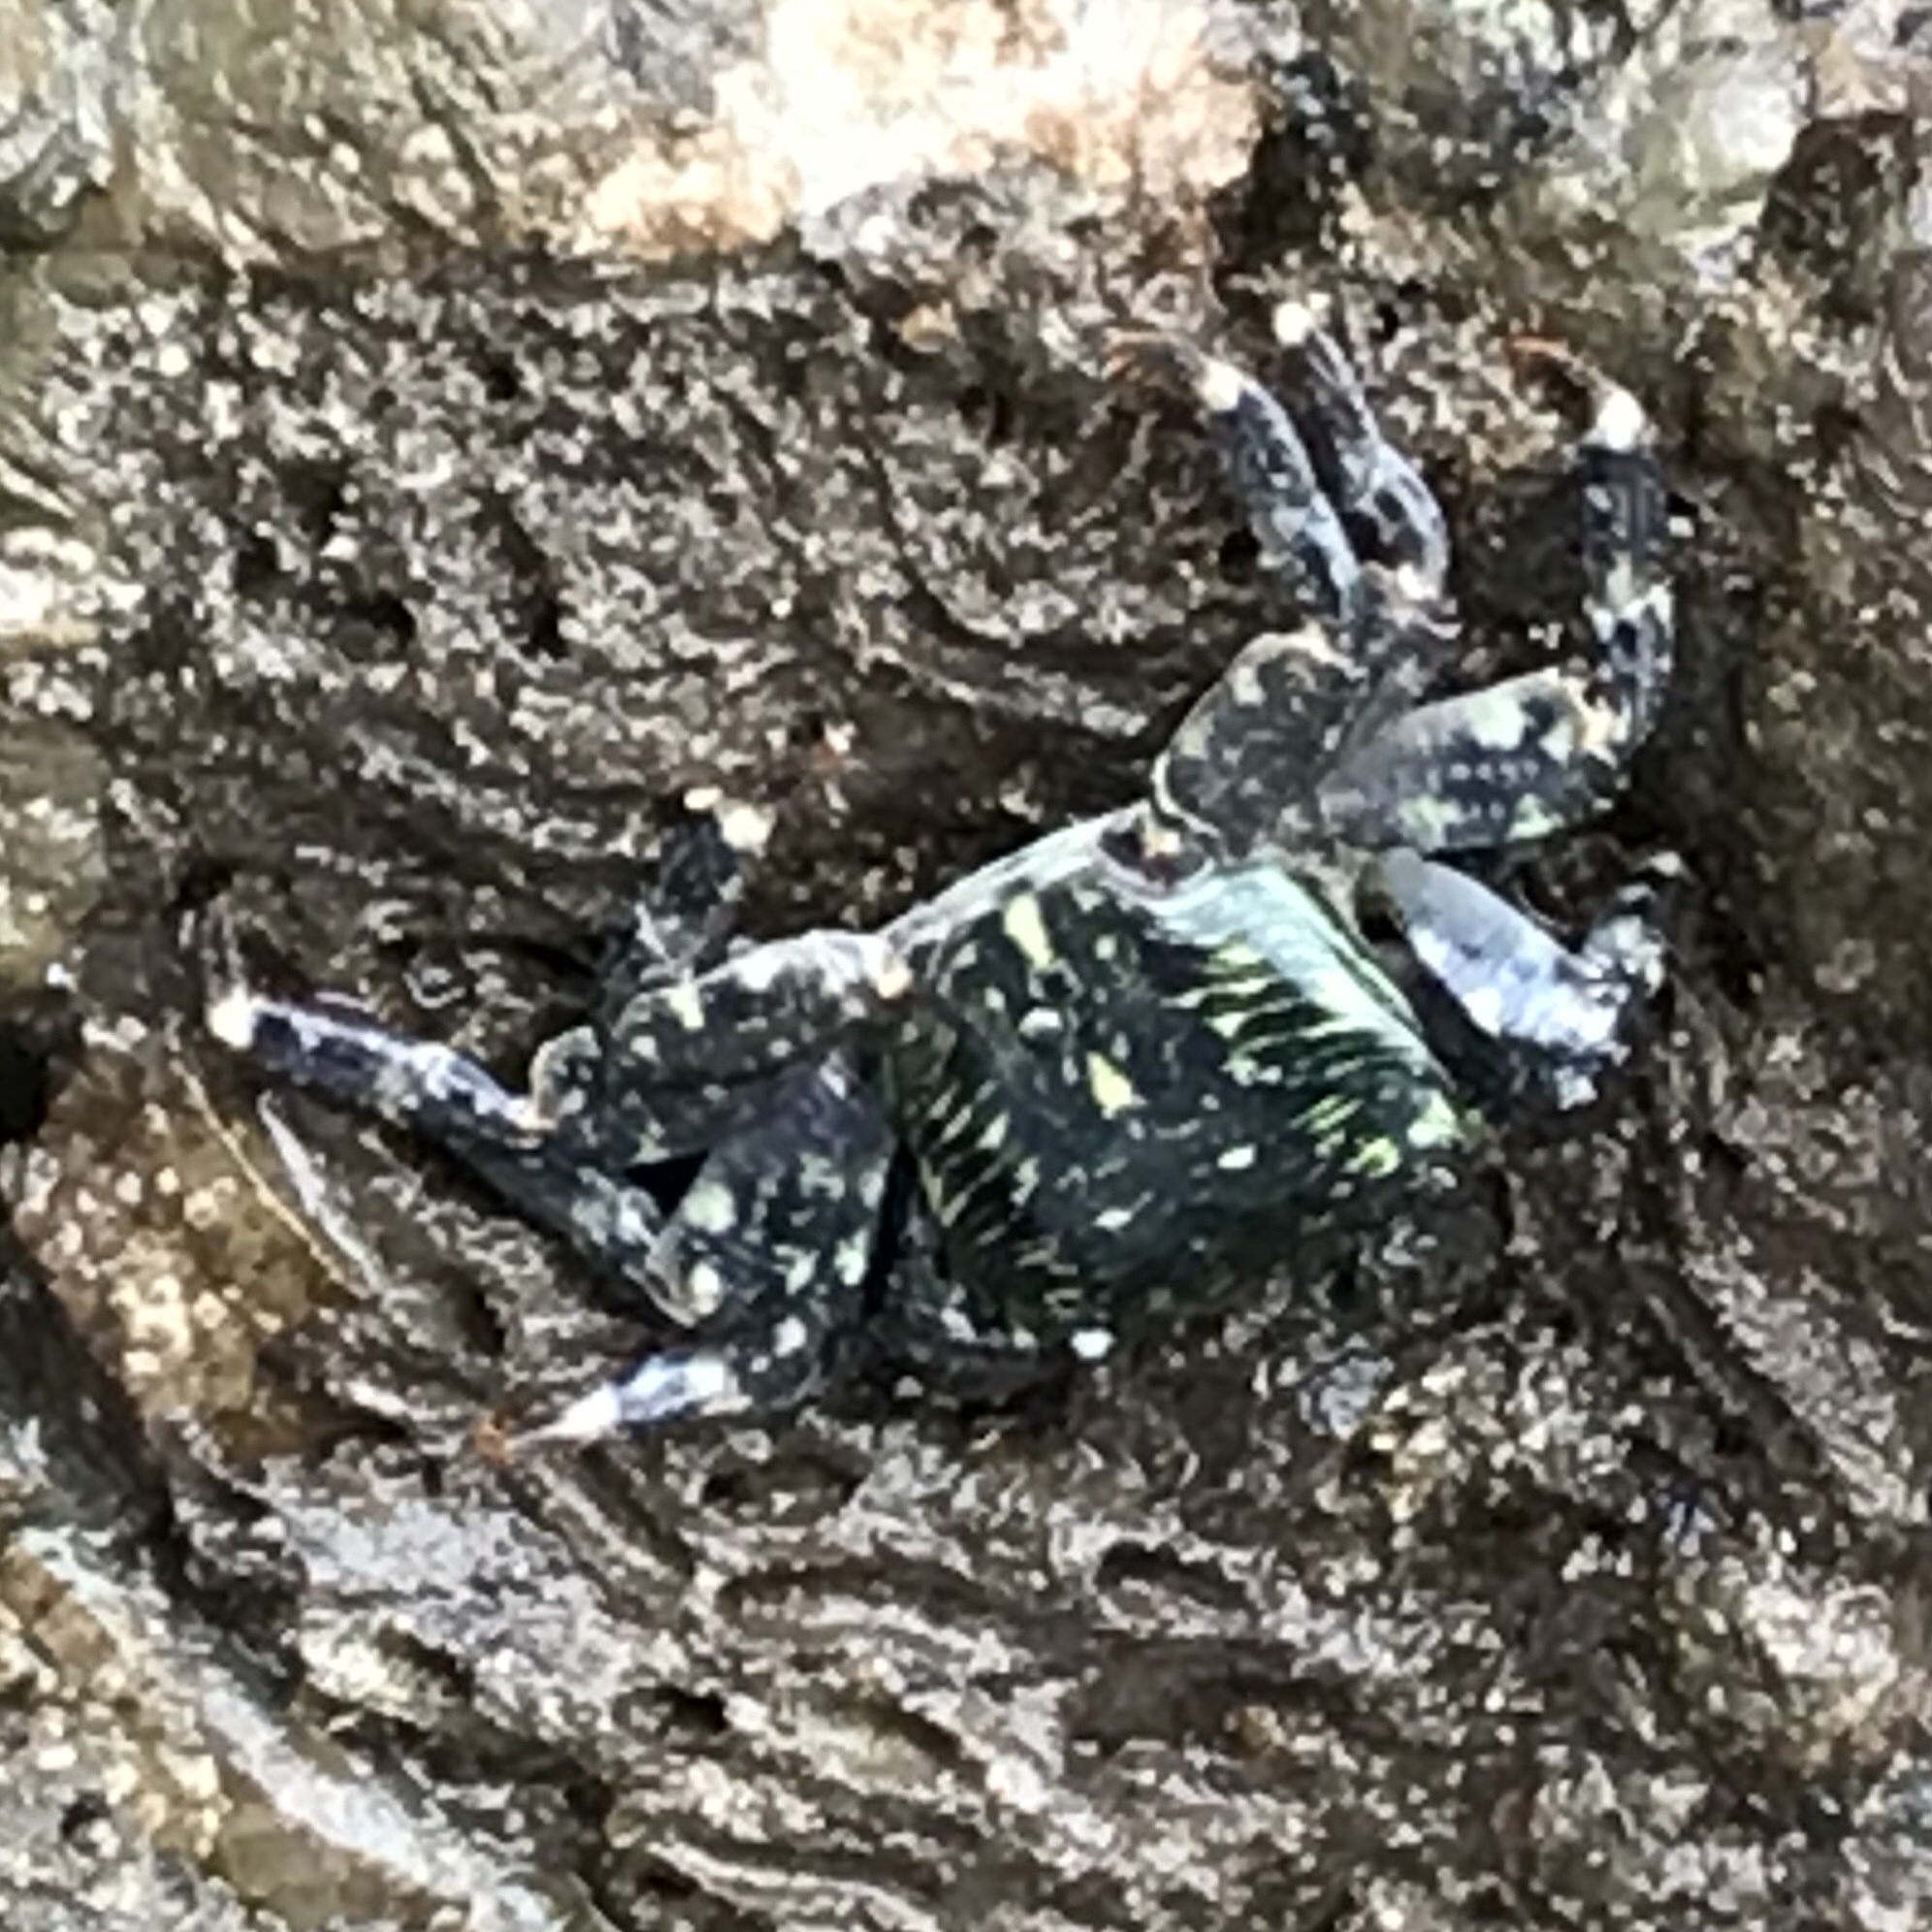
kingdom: Animalia
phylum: Arthropoda
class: Malacostraca
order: Decapoda
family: Grapsidae
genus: Pachygrapsus
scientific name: Pachygrapsus crassipes
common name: Striped shore crab
